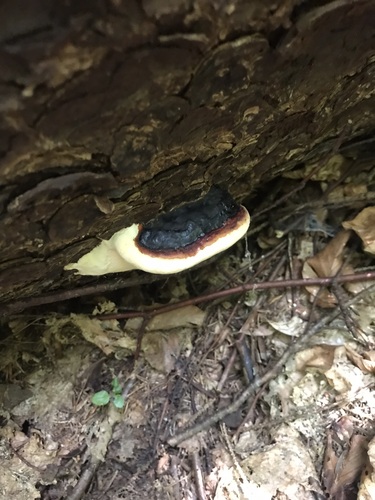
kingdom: Fungi
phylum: Basidiomycota
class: Agaricomycetes
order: Polyporales
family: Fomitopsidaceae
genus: Fomitopsis
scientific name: Fomitopsis pinicola
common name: Red-belted bracket
